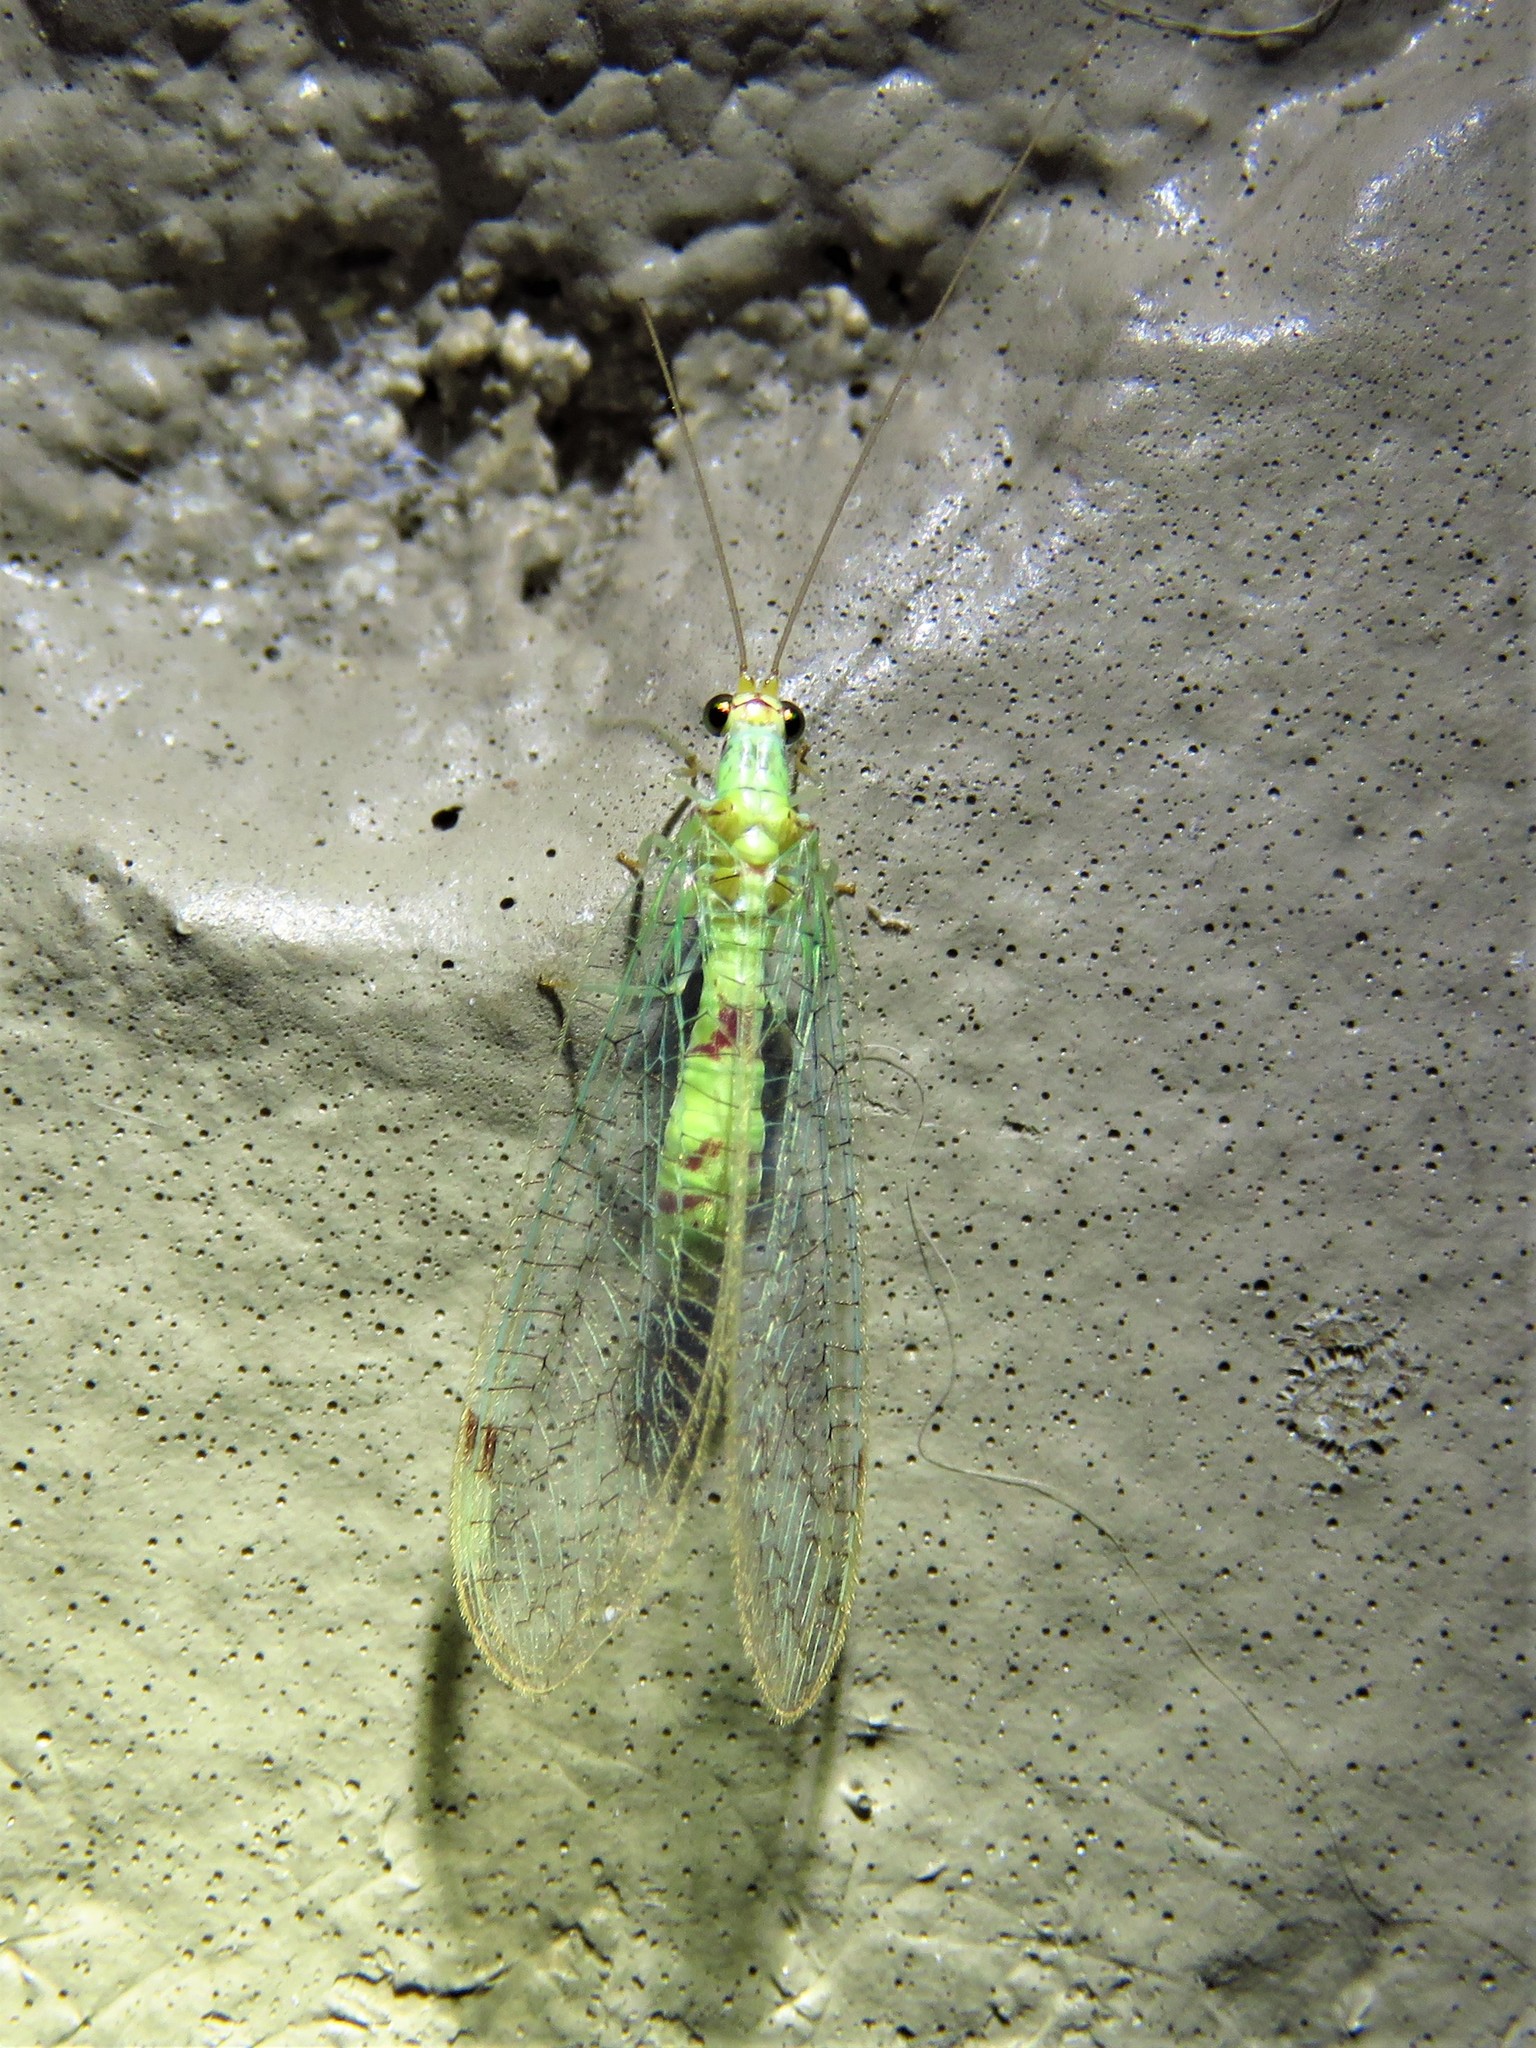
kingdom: Animalia
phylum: Arthropoda
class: Insecta
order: Neuroptera
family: Chrysopidae
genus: Leucochrysa
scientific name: Leucochrysa americana
